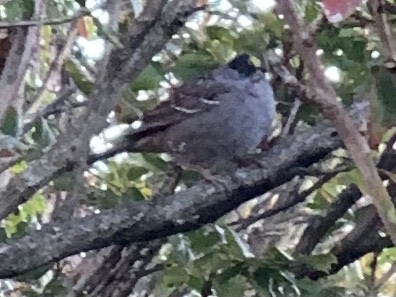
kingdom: Animalia
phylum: Chordata
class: Aves
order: Passeriformes
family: Passerellidae
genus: Zonotrichia
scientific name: Zonotrichia atricapilla
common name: Golden-crowned sparrow
